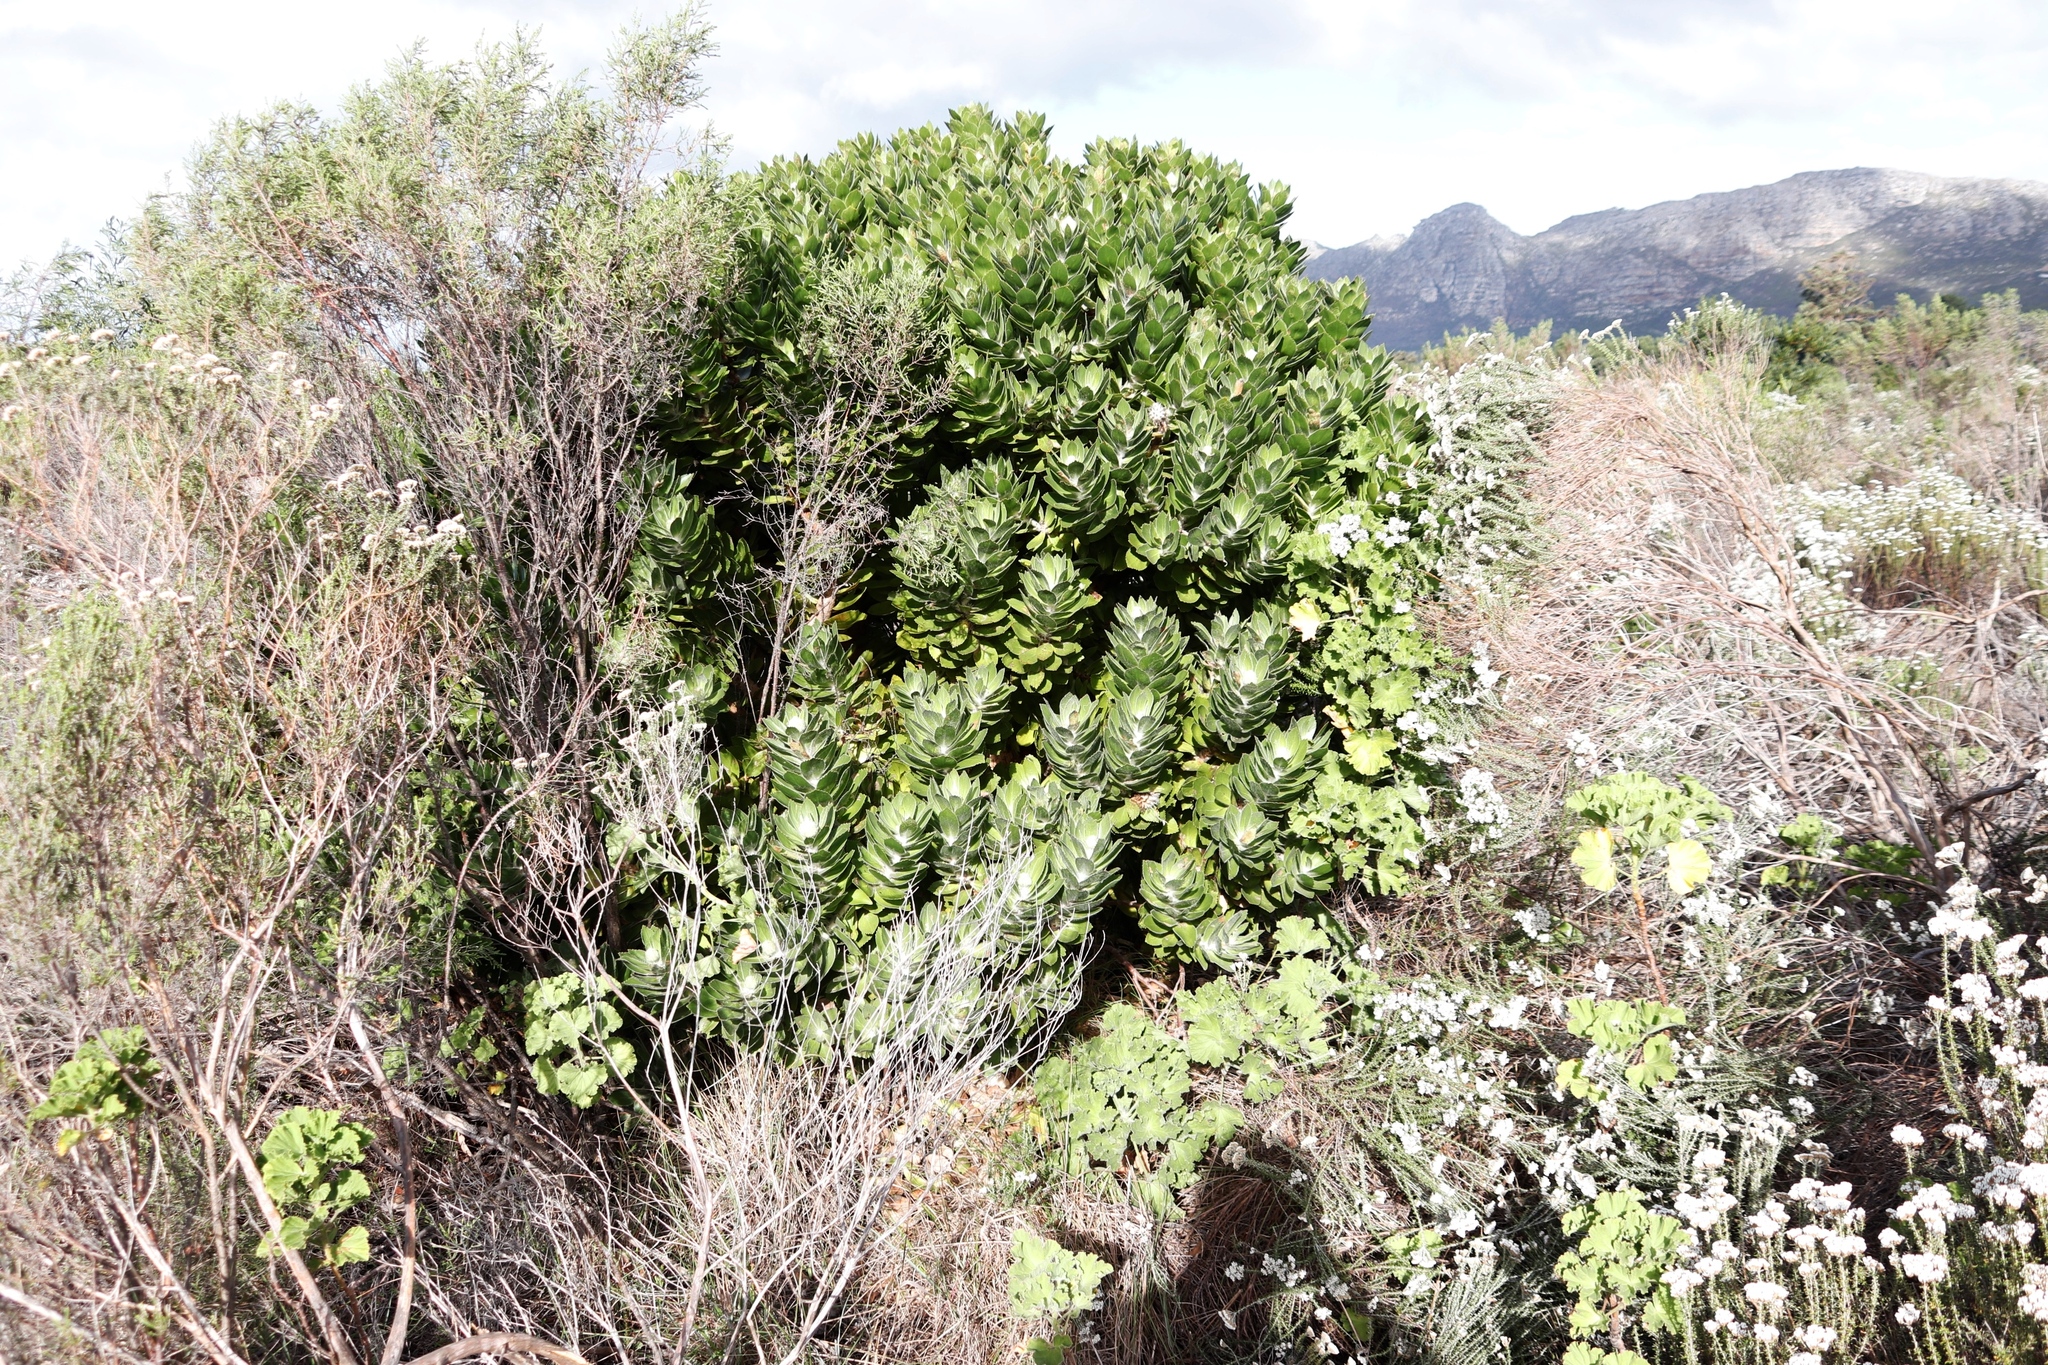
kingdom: Plantae
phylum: Tracheophyta
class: Magnoliopsida
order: Proteales
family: Proteaceae
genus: Leucospermum
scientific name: Leucospermum conocarpodendron
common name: Tree pincushion
